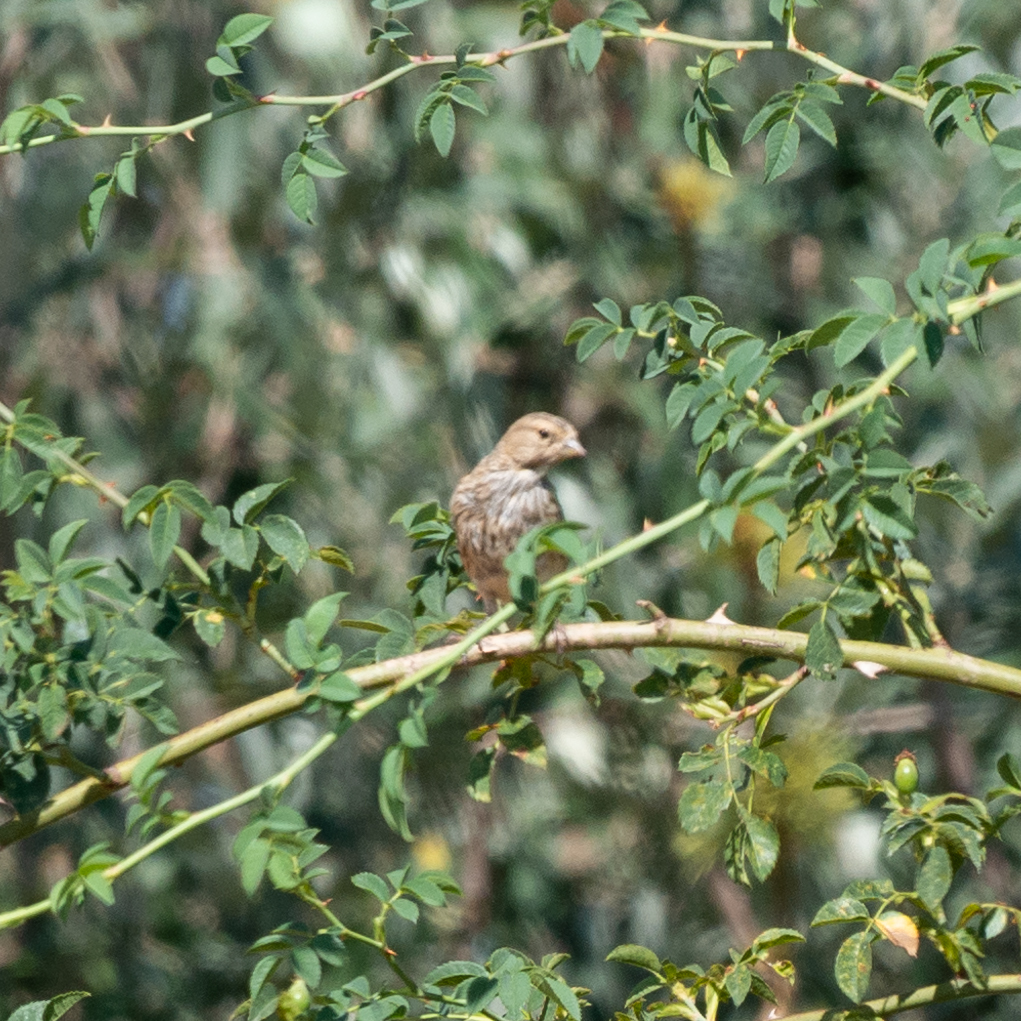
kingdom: Animalia
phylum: Chordata
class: Aves
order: Passeriformes
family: Fringillidae
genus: Linaria
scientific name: Linaria cannabina
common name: Common linnet
